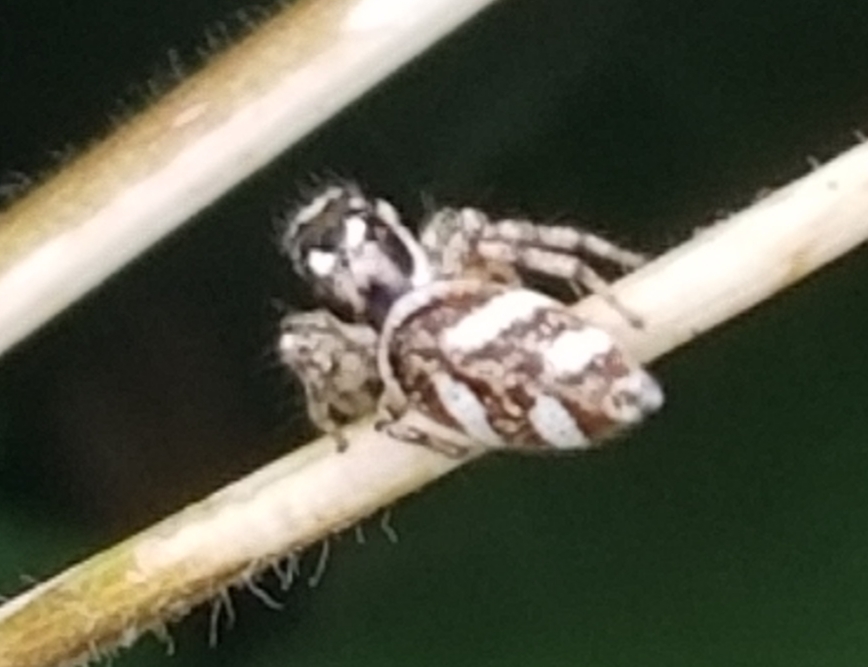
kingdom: Animalia
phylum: Arthropoda
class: Arachnida
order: Araneae
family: Salticidae
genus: Salticus
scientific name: Salticus scenicus
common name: Zebra jumper
